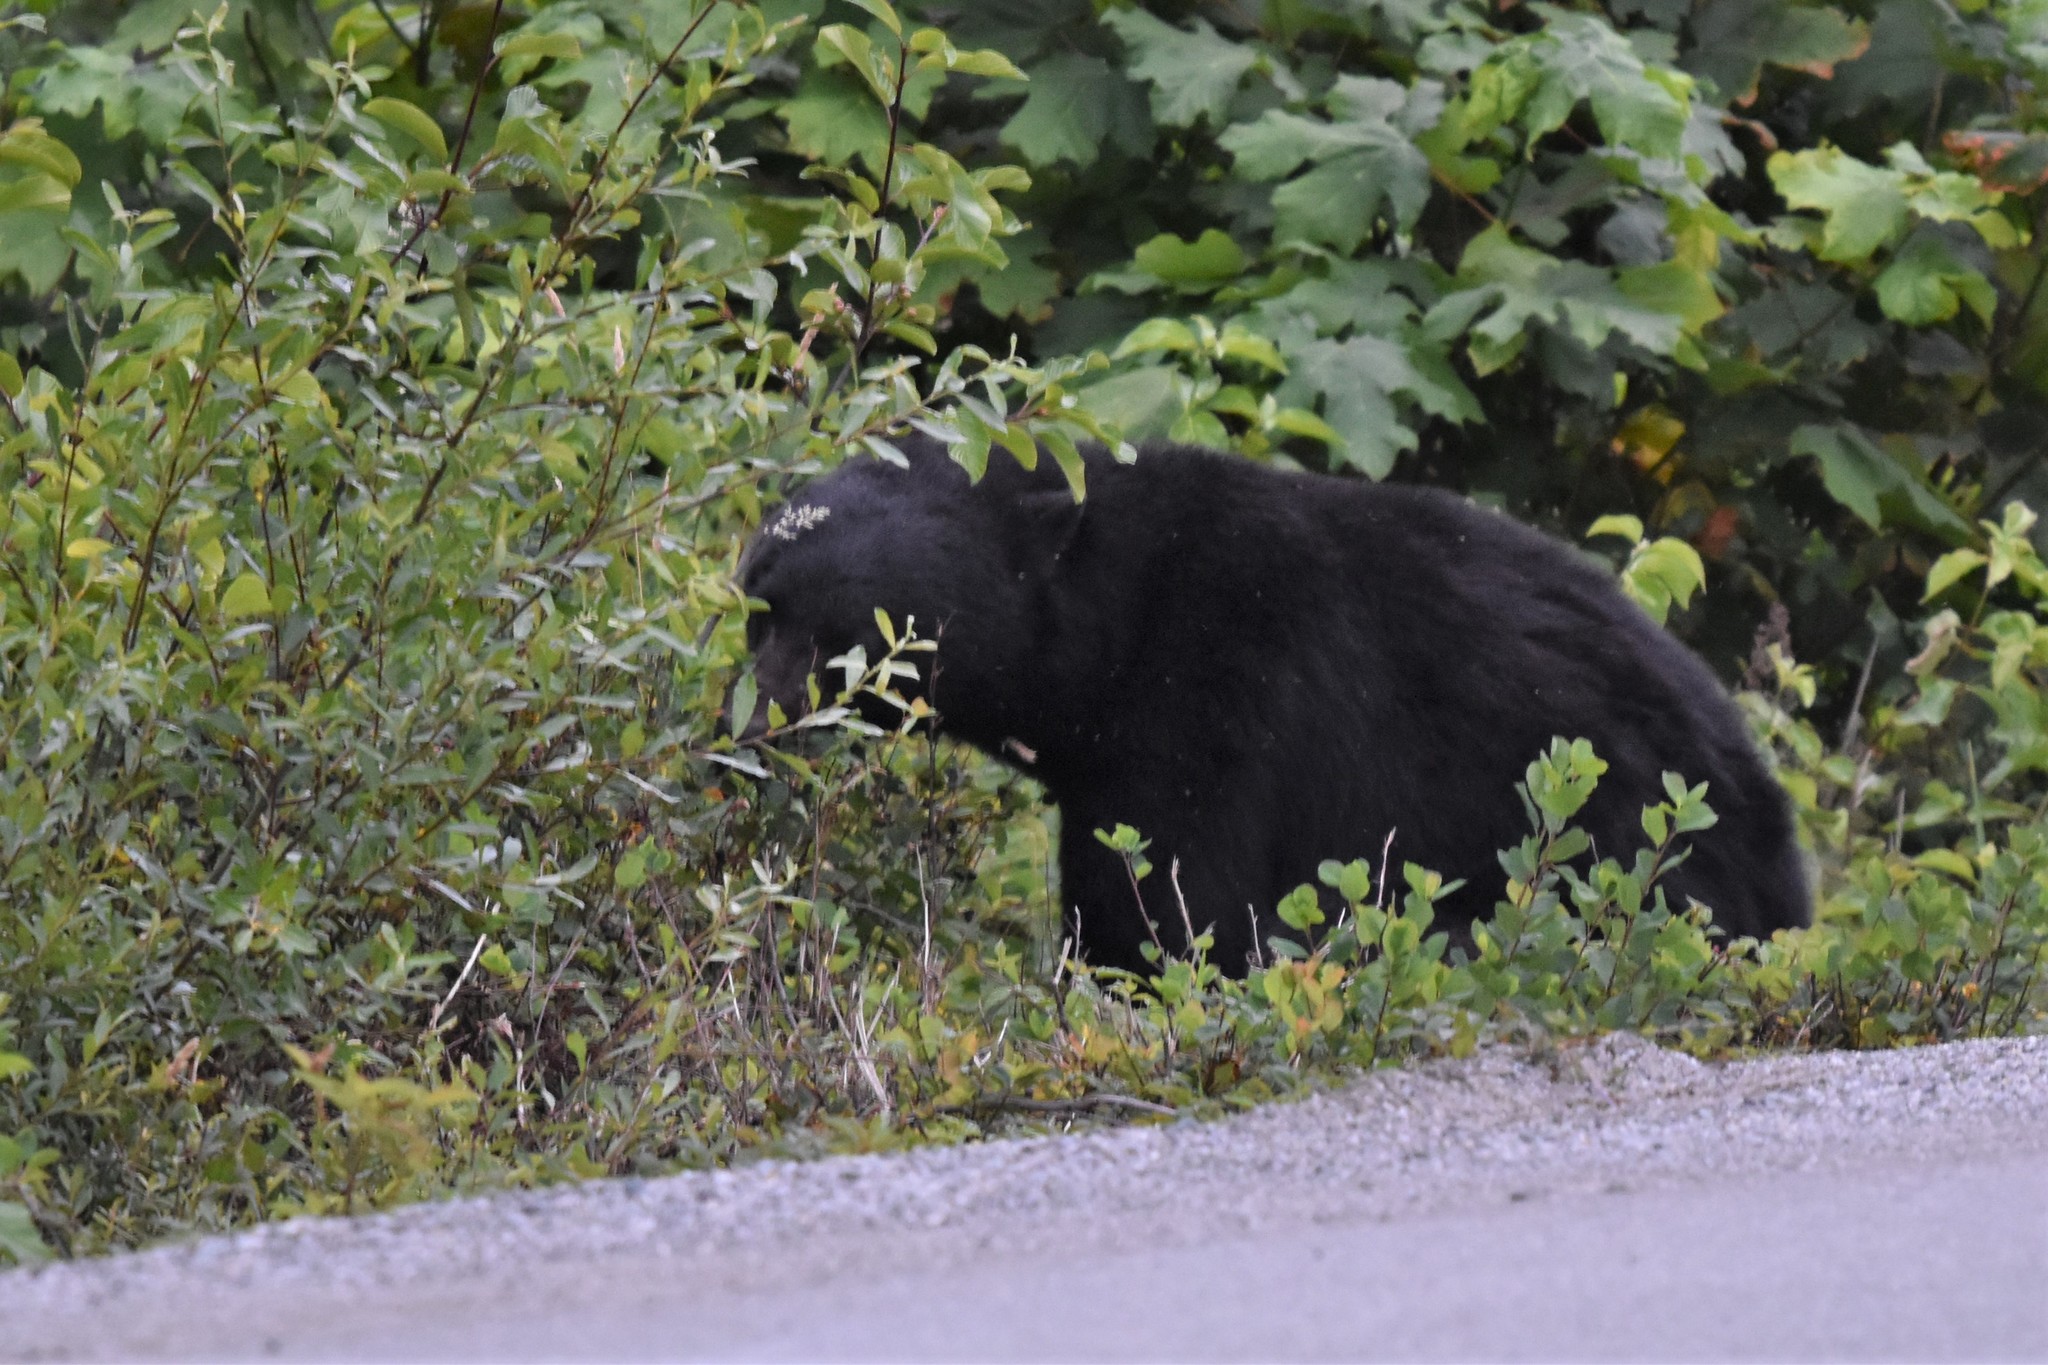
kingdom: Animalia
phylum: Chordata
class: Mammalia
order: Carnivora
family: Ursidae
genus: Ursus
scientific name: Ursus americanus
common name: American black bear
